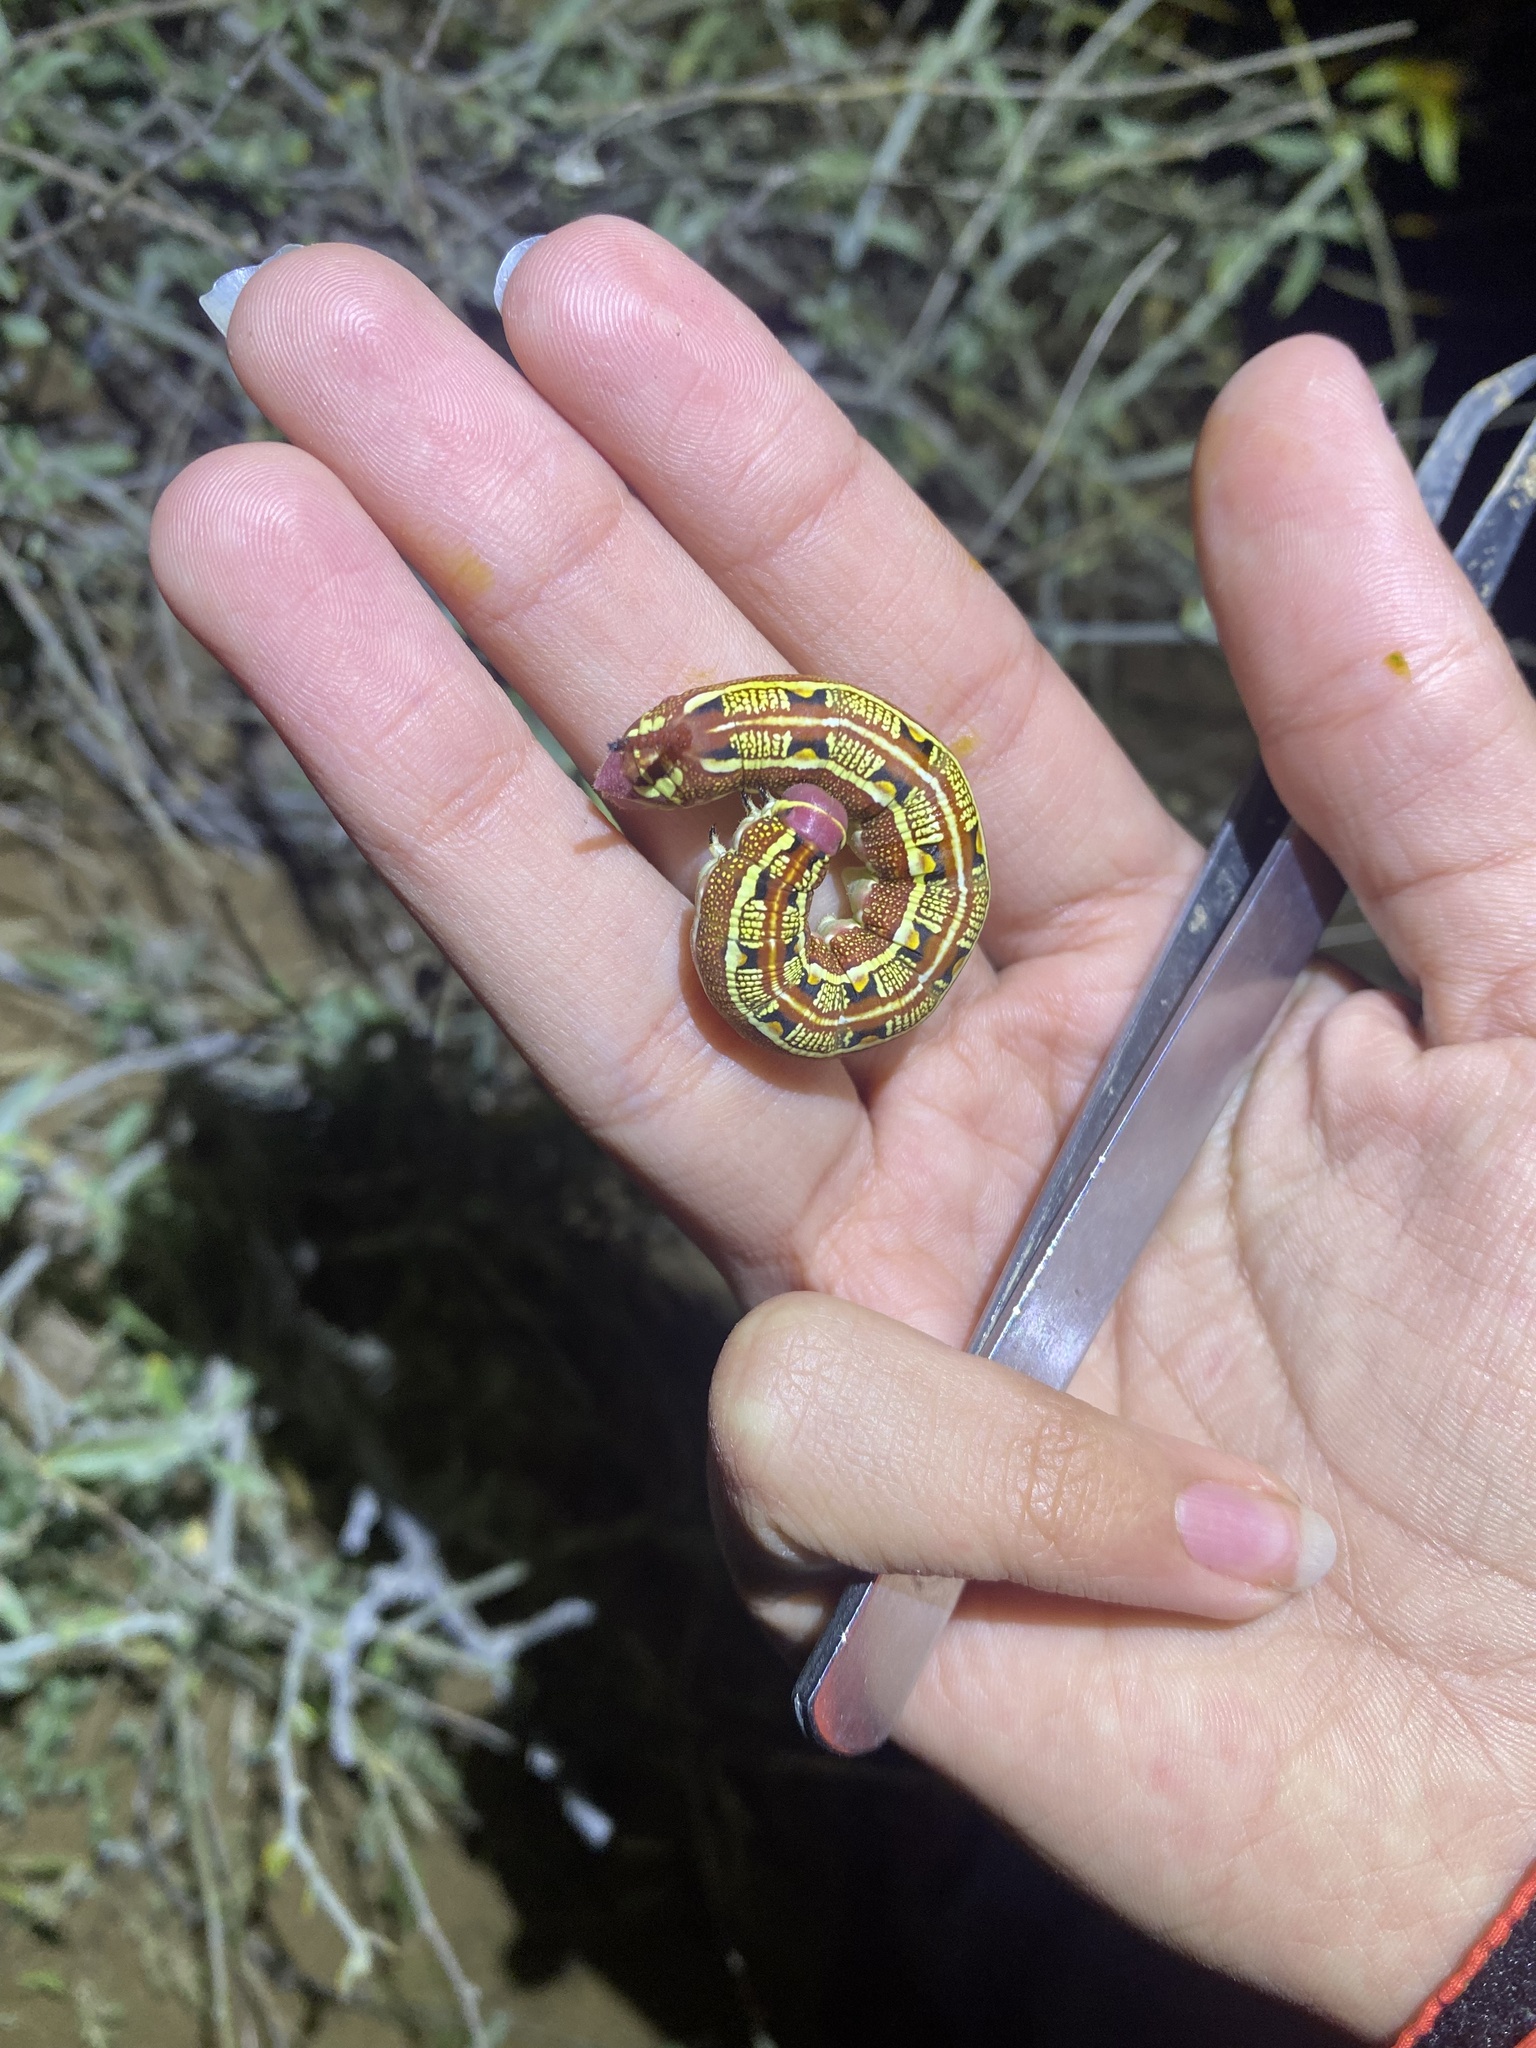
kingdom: Animalia
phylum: Arthropoda
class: Insecta
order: Lepidoptera
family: Sphingidae
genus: Hyles
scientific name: Hyles livornica
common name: Striped hawk-moth
